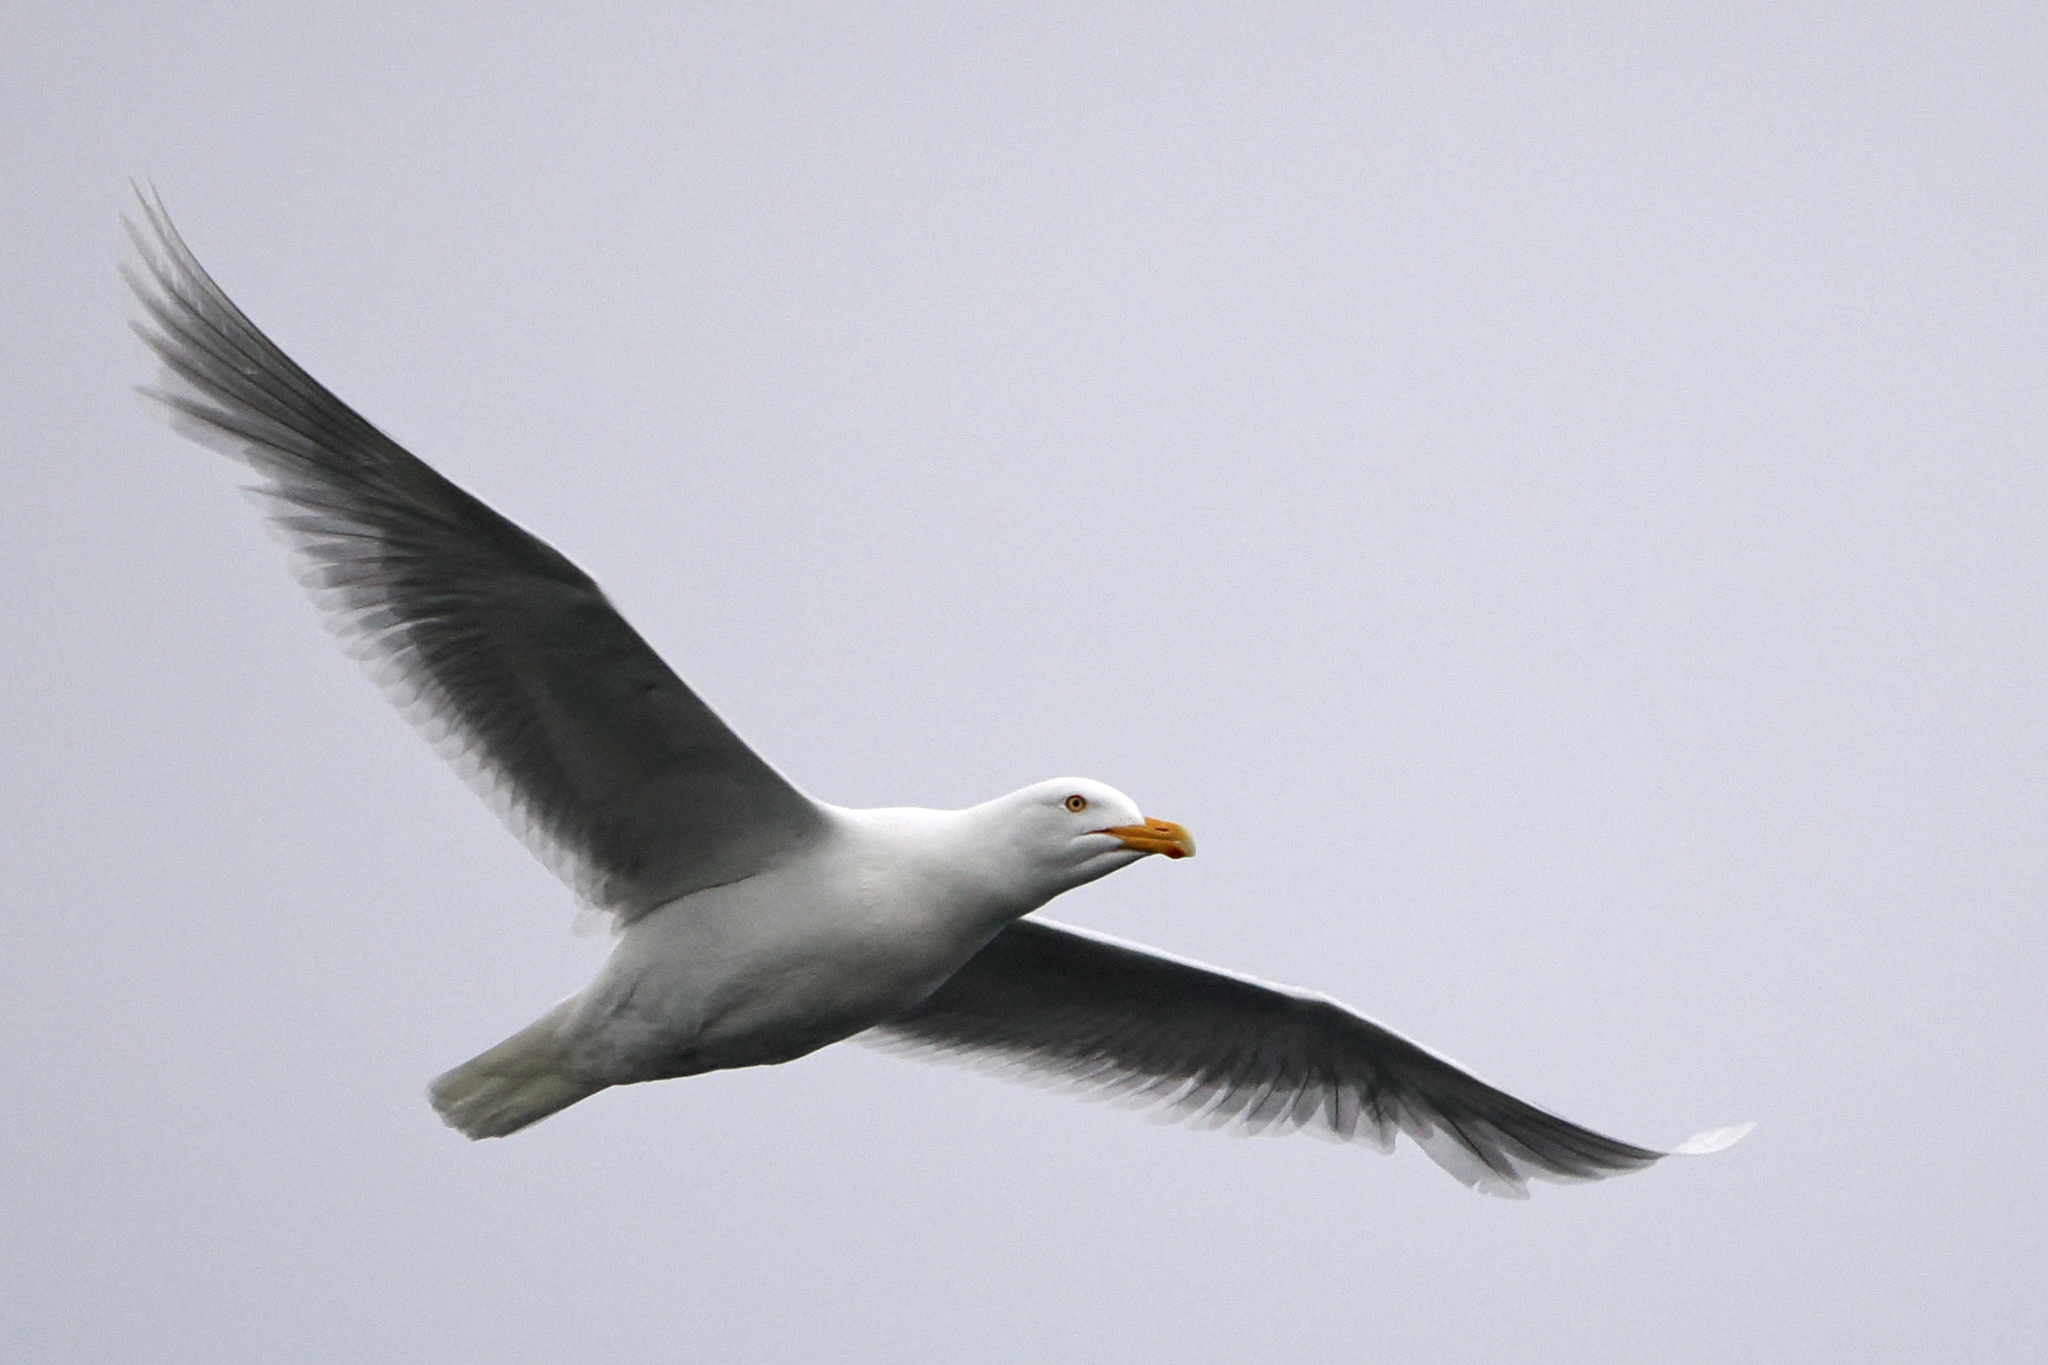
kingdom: Animalia
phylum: Chordata
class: Aves
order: Charadriiformes
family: Laridae
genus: Larus
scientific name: Larus hyperboreus
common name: Glaucous gull
